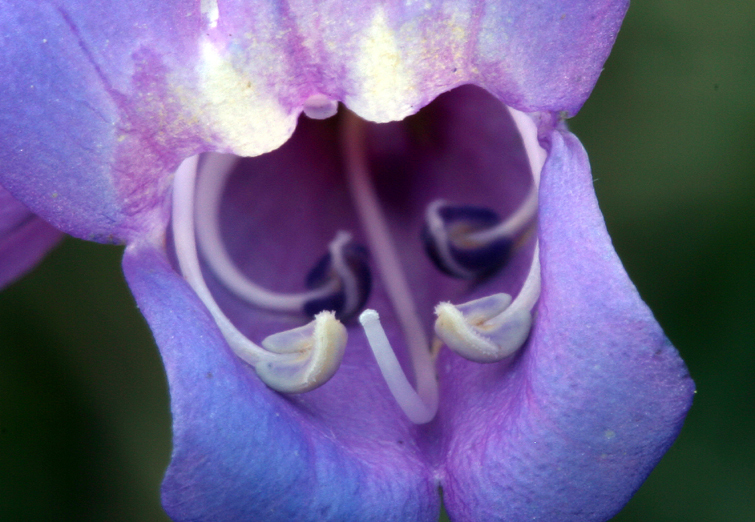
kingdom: Plantae
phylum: Tracheophyta
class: Magnoliopsida
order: Lamiales
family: Plantaginaceae
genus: Penstemon
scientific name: Penstemon azureus
